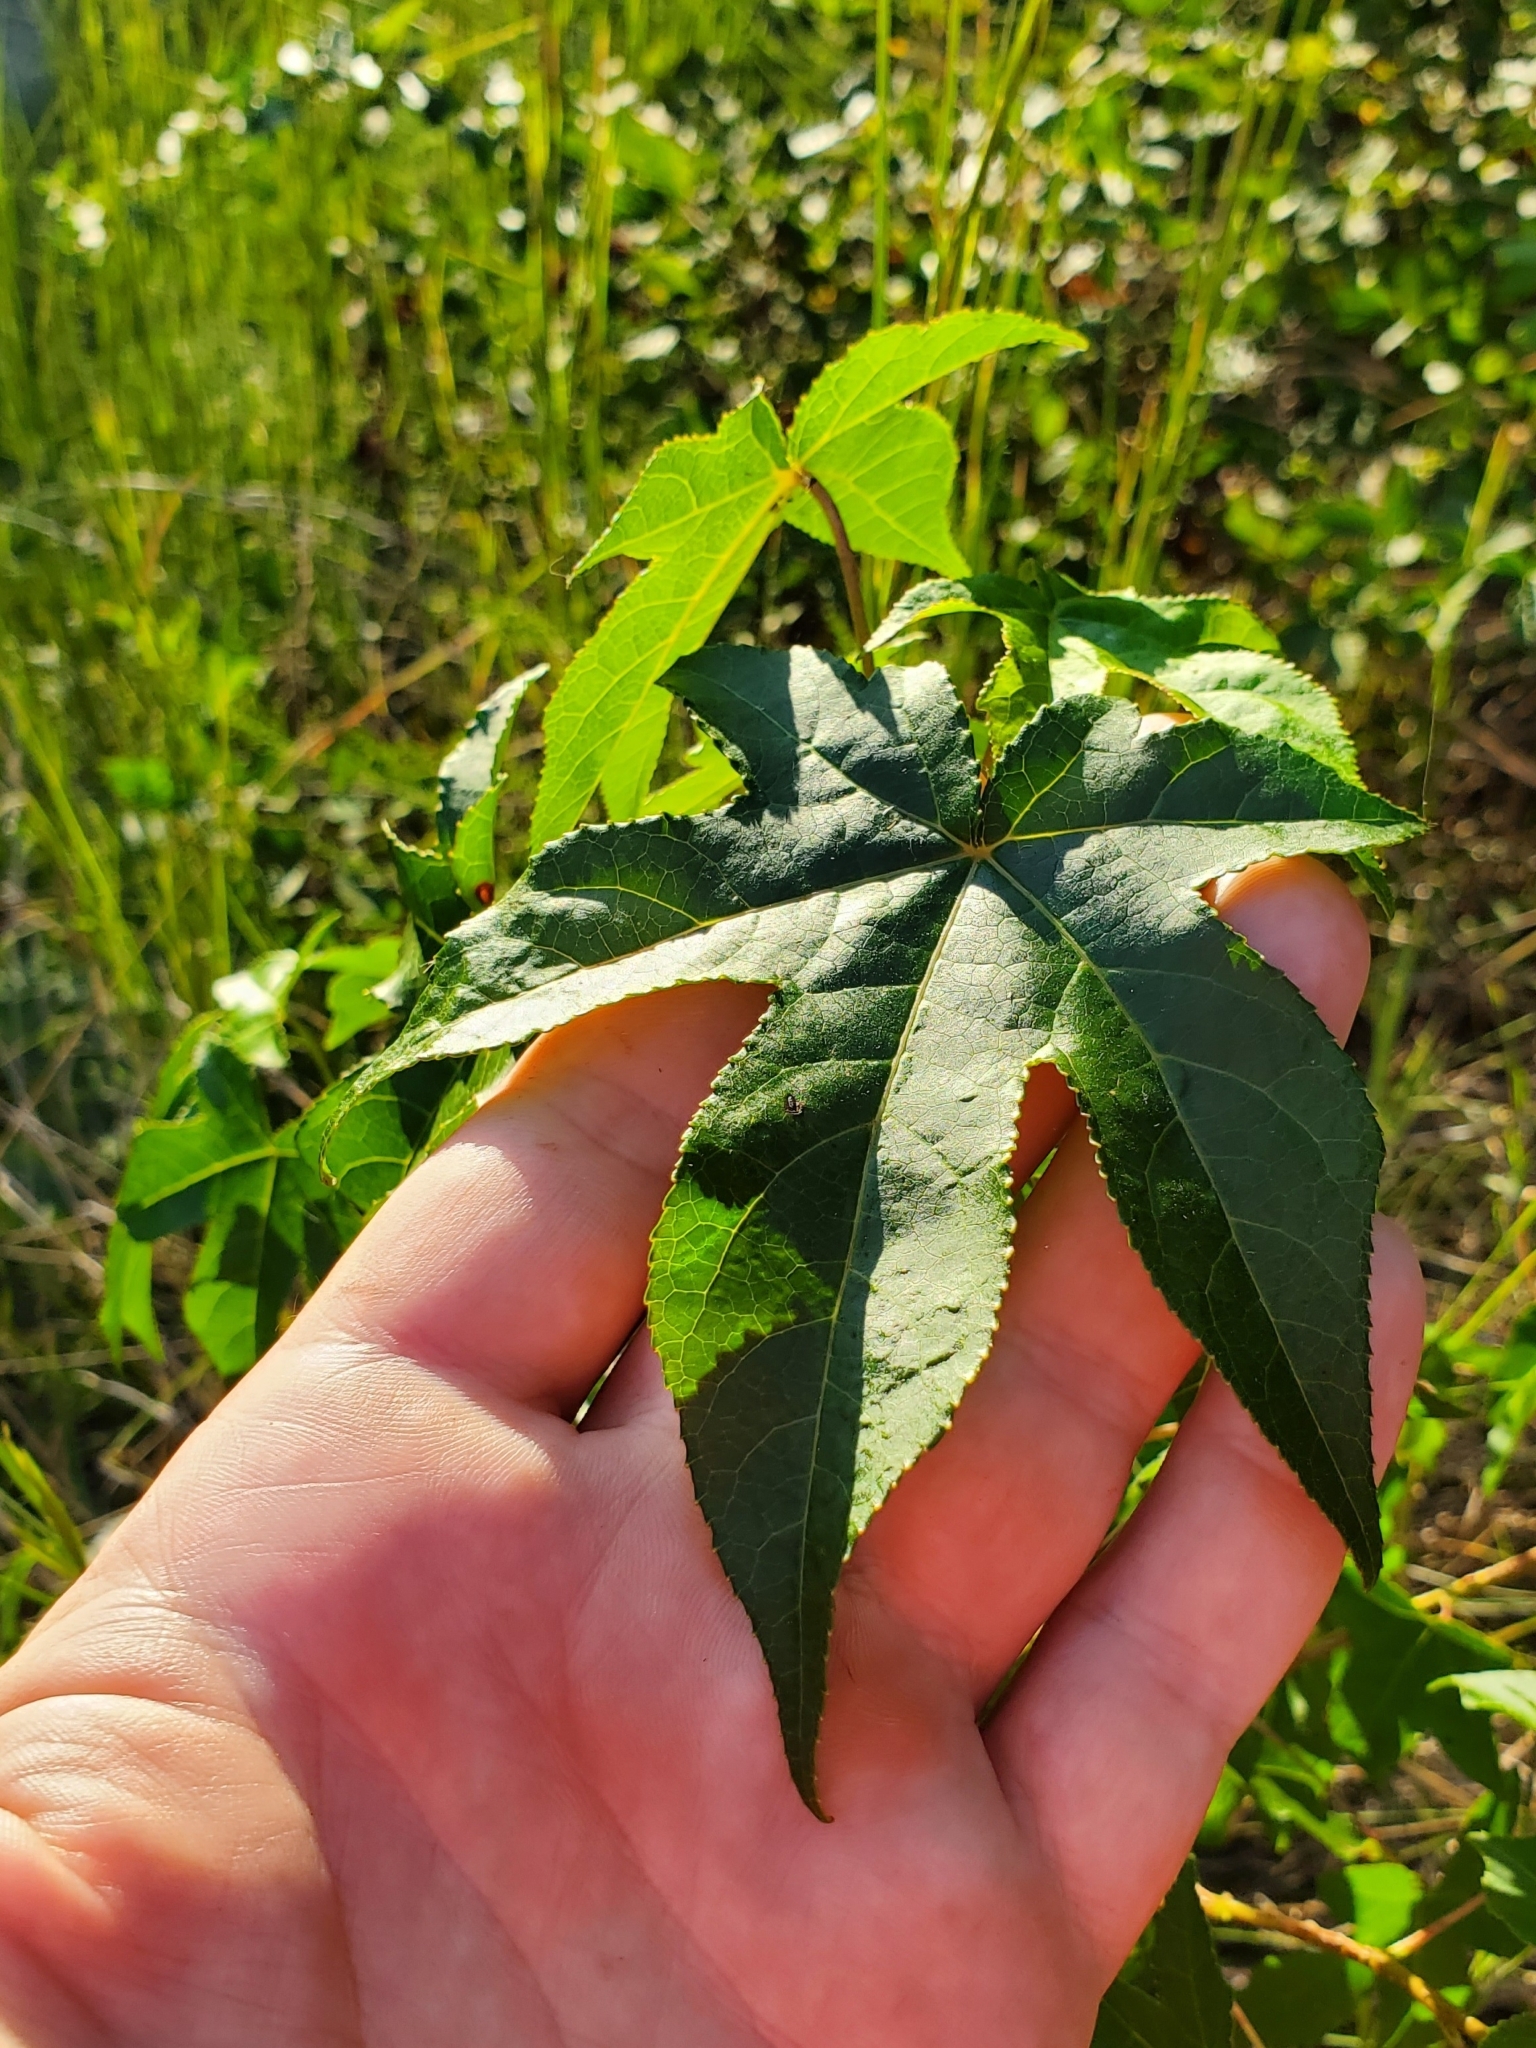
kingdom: Plantae
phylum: Tracheophyta
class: Magnoliopsida
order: Saxifragales
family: Altingiaceae
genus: Liquidambar
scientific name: Liquidambar styraciflua
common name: Sweet gum
